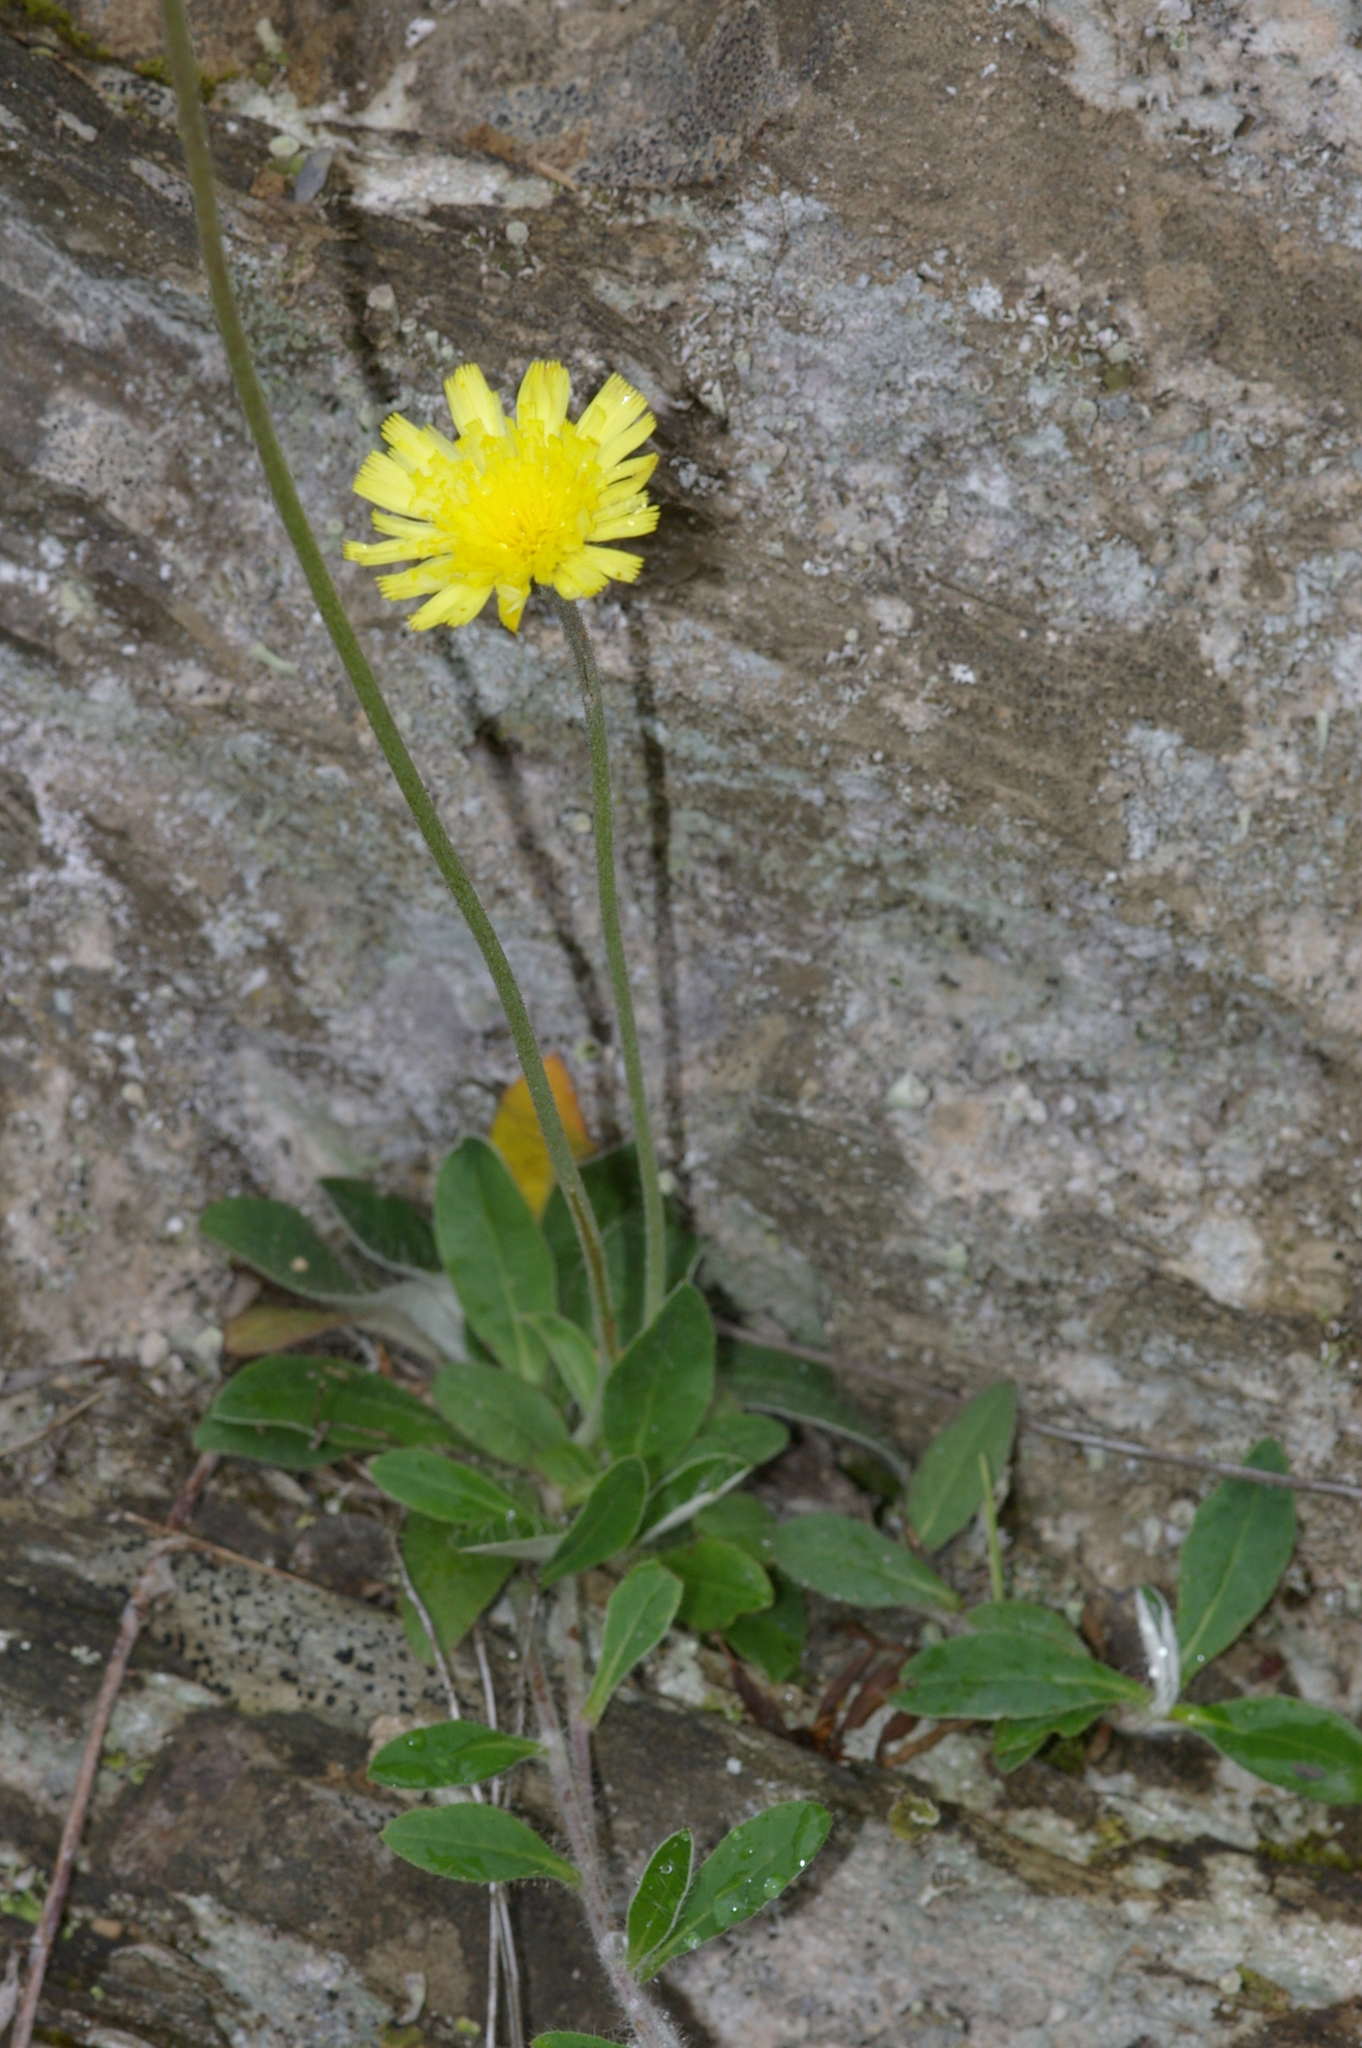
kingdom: Plantae
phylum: Tracheophyta
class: Magnoliopsida
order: Asterales
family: Asteraceae
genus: Pilosella
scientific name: Pilosella officinarum
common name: Mouse-ear hawkweed
